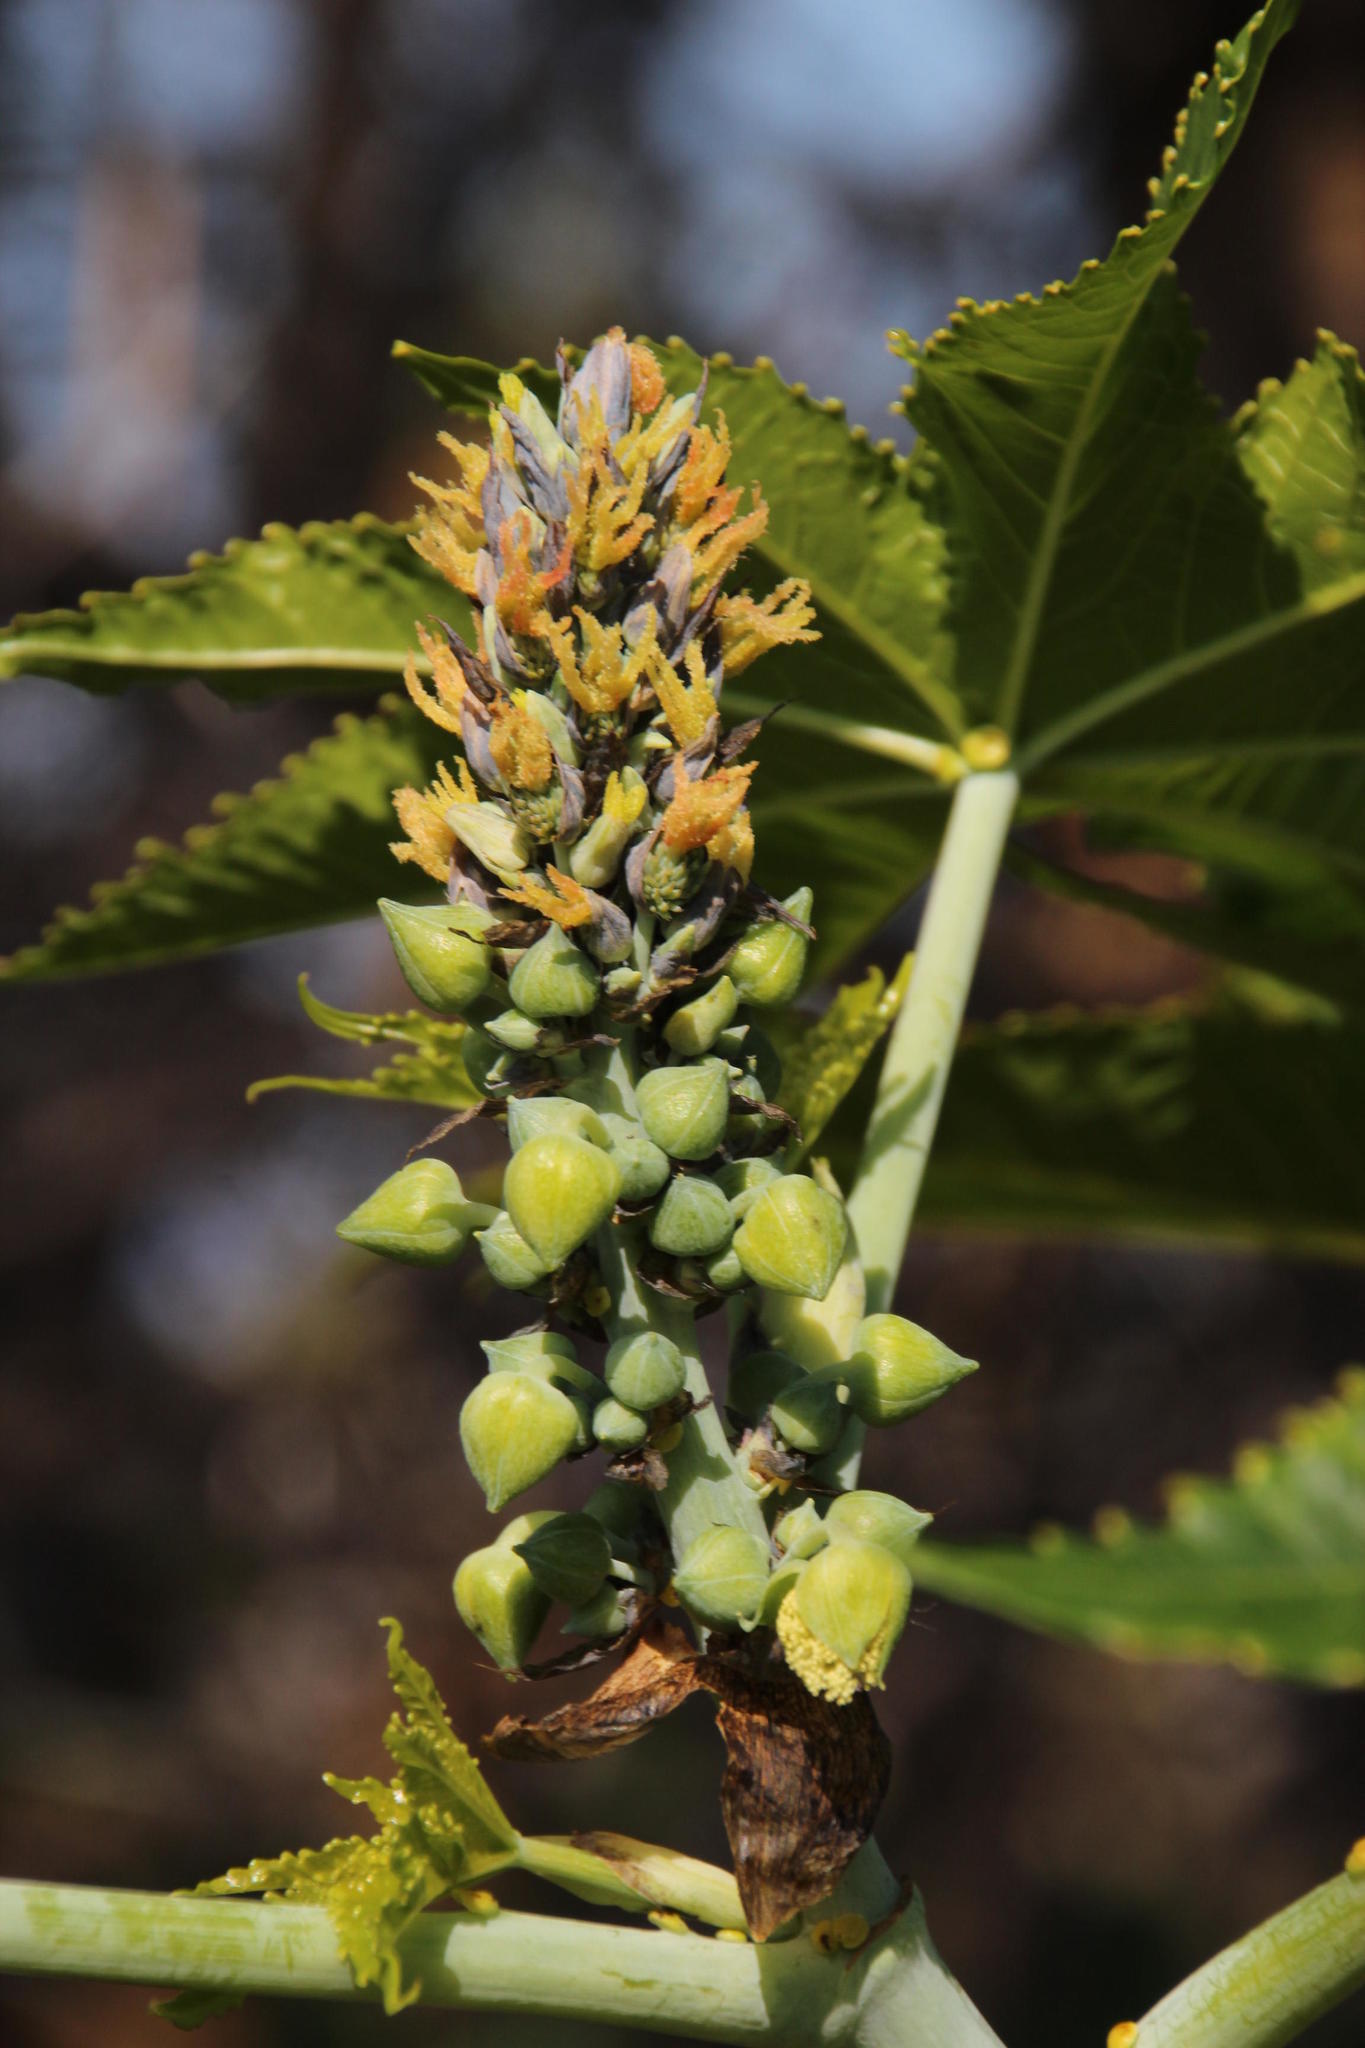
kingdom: Plantae
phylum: Tracheophyta
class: Magnoliopsida
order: Malpighiales
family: Euphorbiaceae
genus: Ricinus
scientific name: Ricinus communis
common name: Castor-oil-plant
